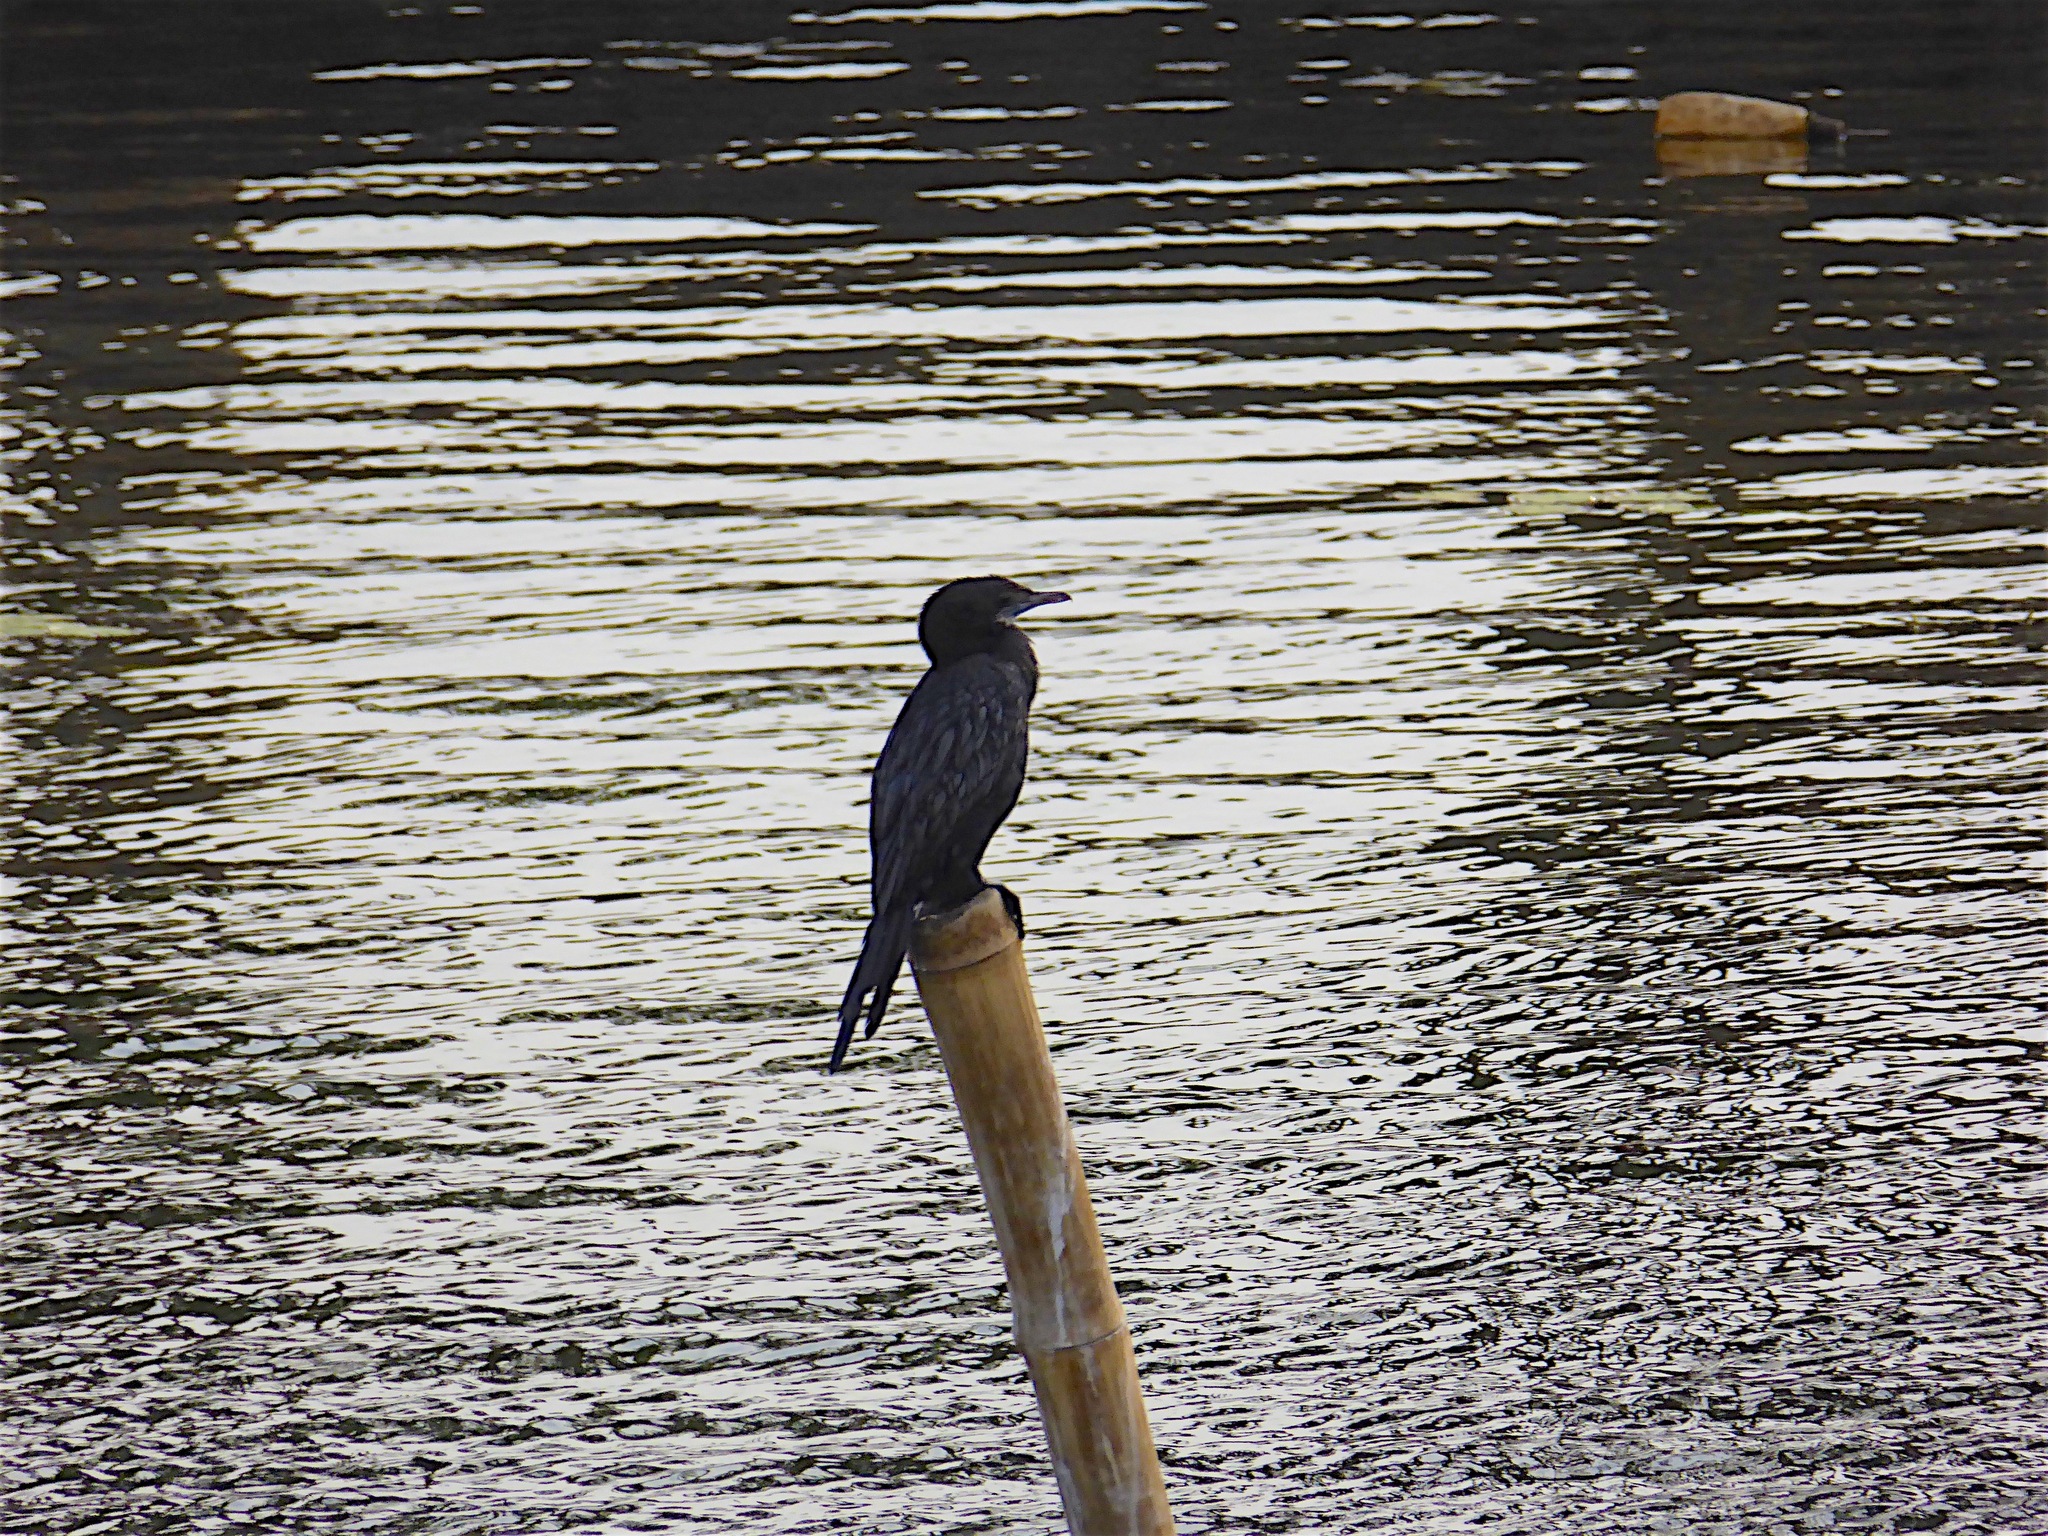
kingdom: Animalia
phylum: Chordata
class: Aves
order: Suliformes
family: Phalacrocoracidae
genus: Microcarbo
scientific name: Microcarbo niger
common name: Little cormorant
